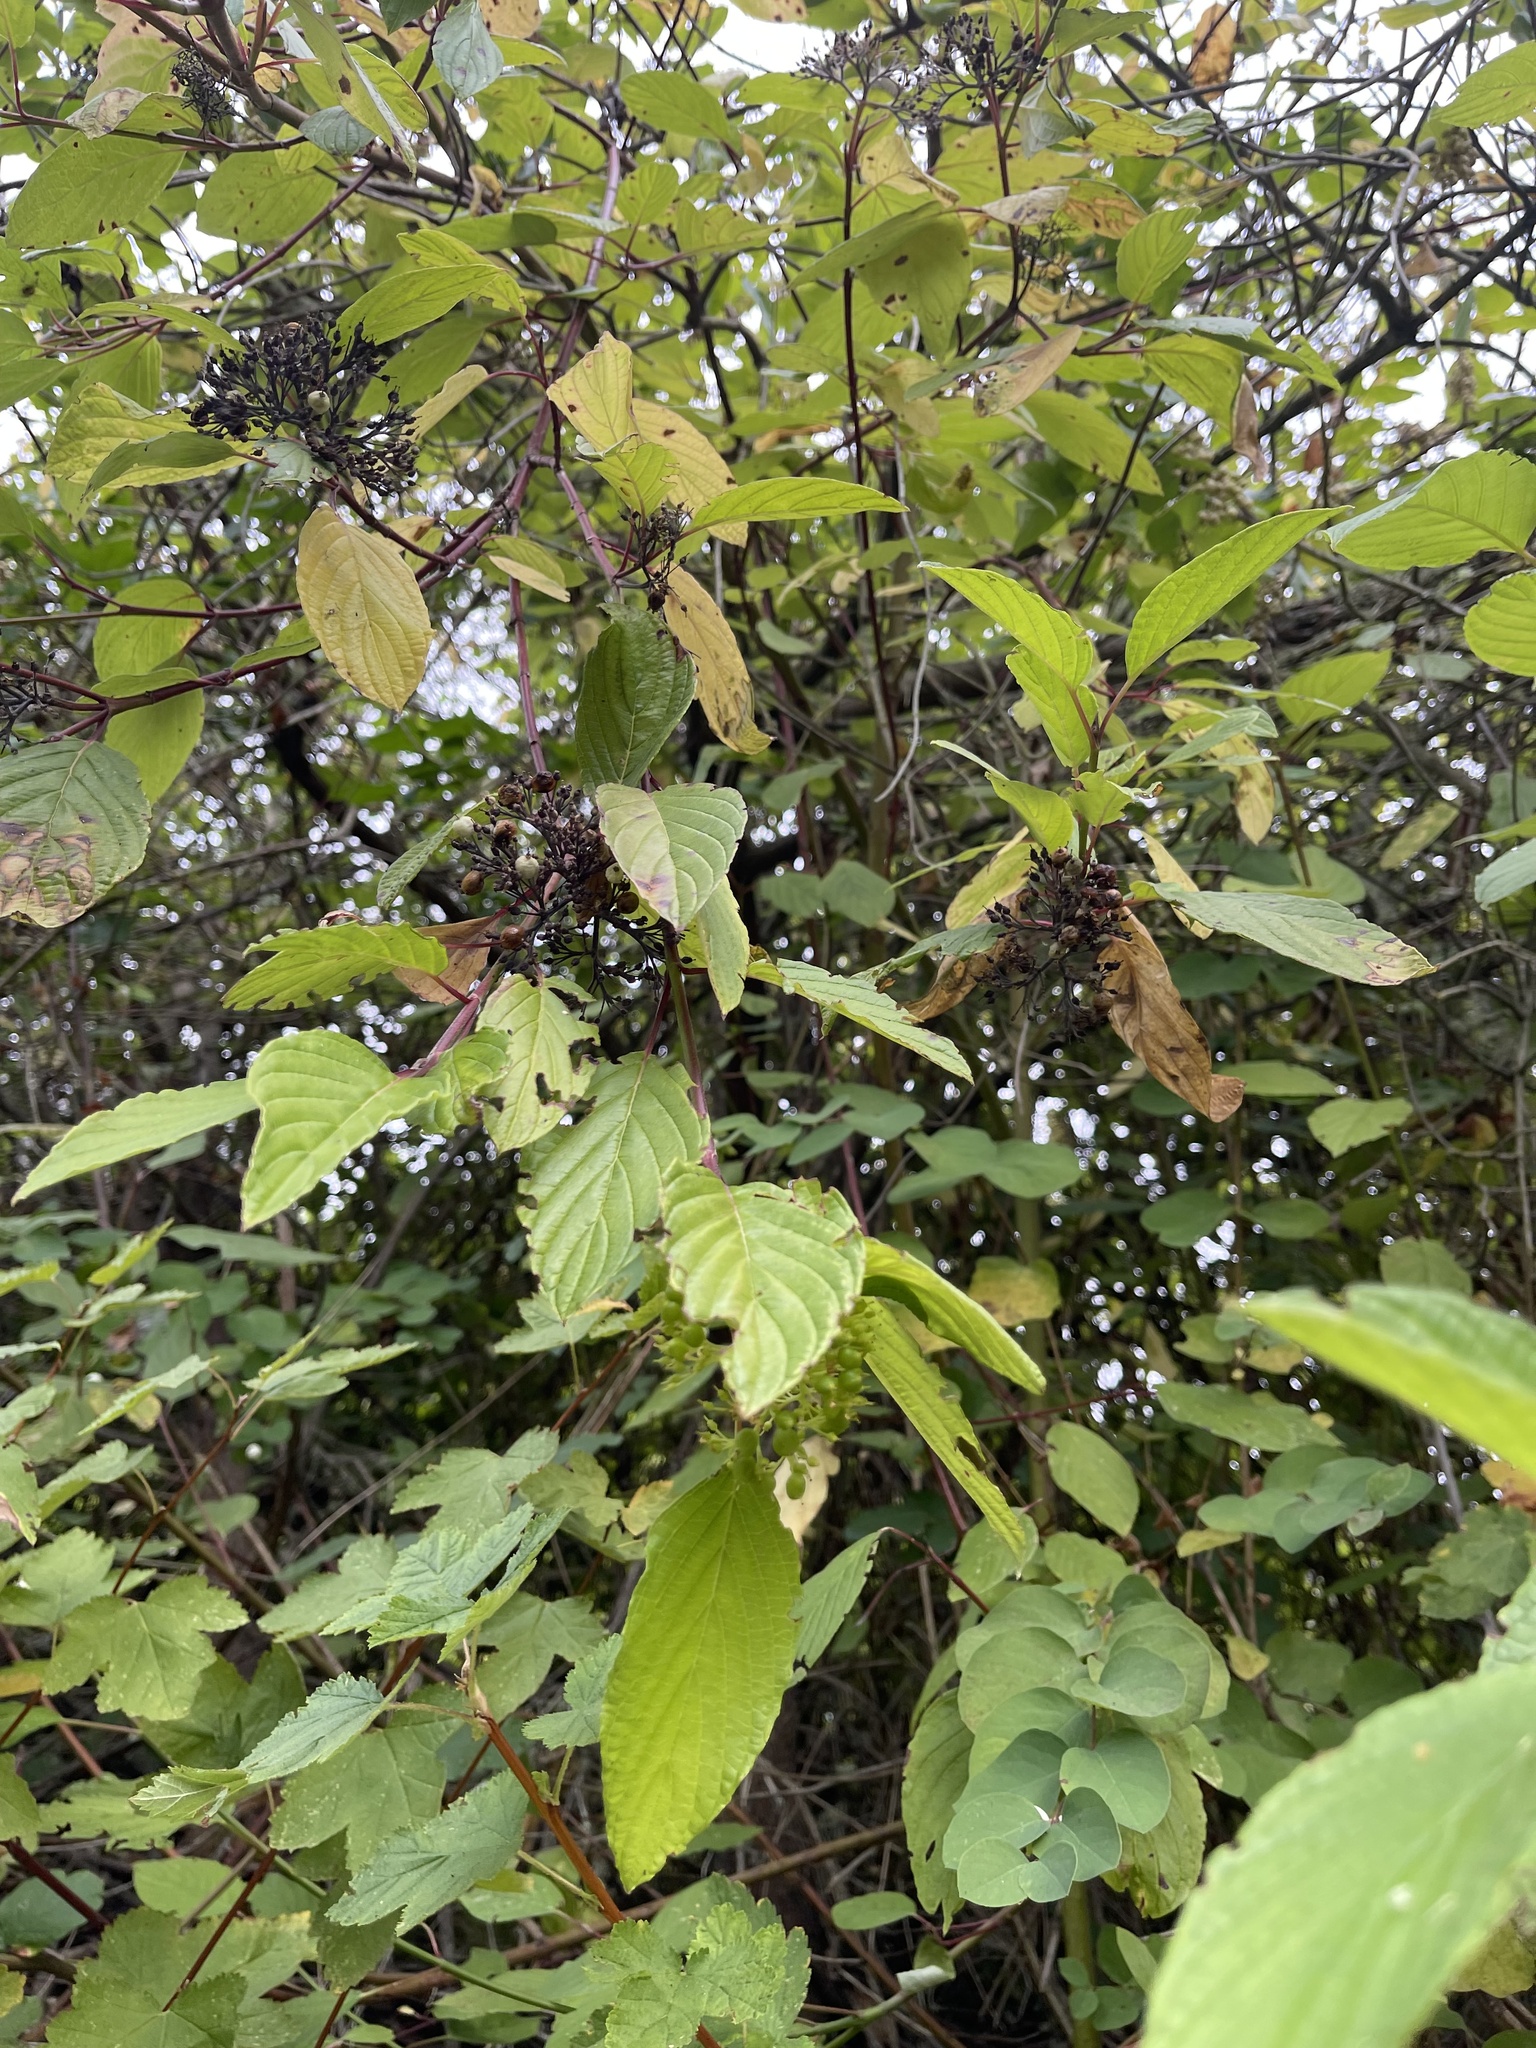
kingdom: Plantae
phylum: Tracheophyta
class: Magnoliopsida
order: Cornales
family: Cornaceae
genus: Cornus
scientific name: Cornus sericea
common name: Red-osier dogwood
